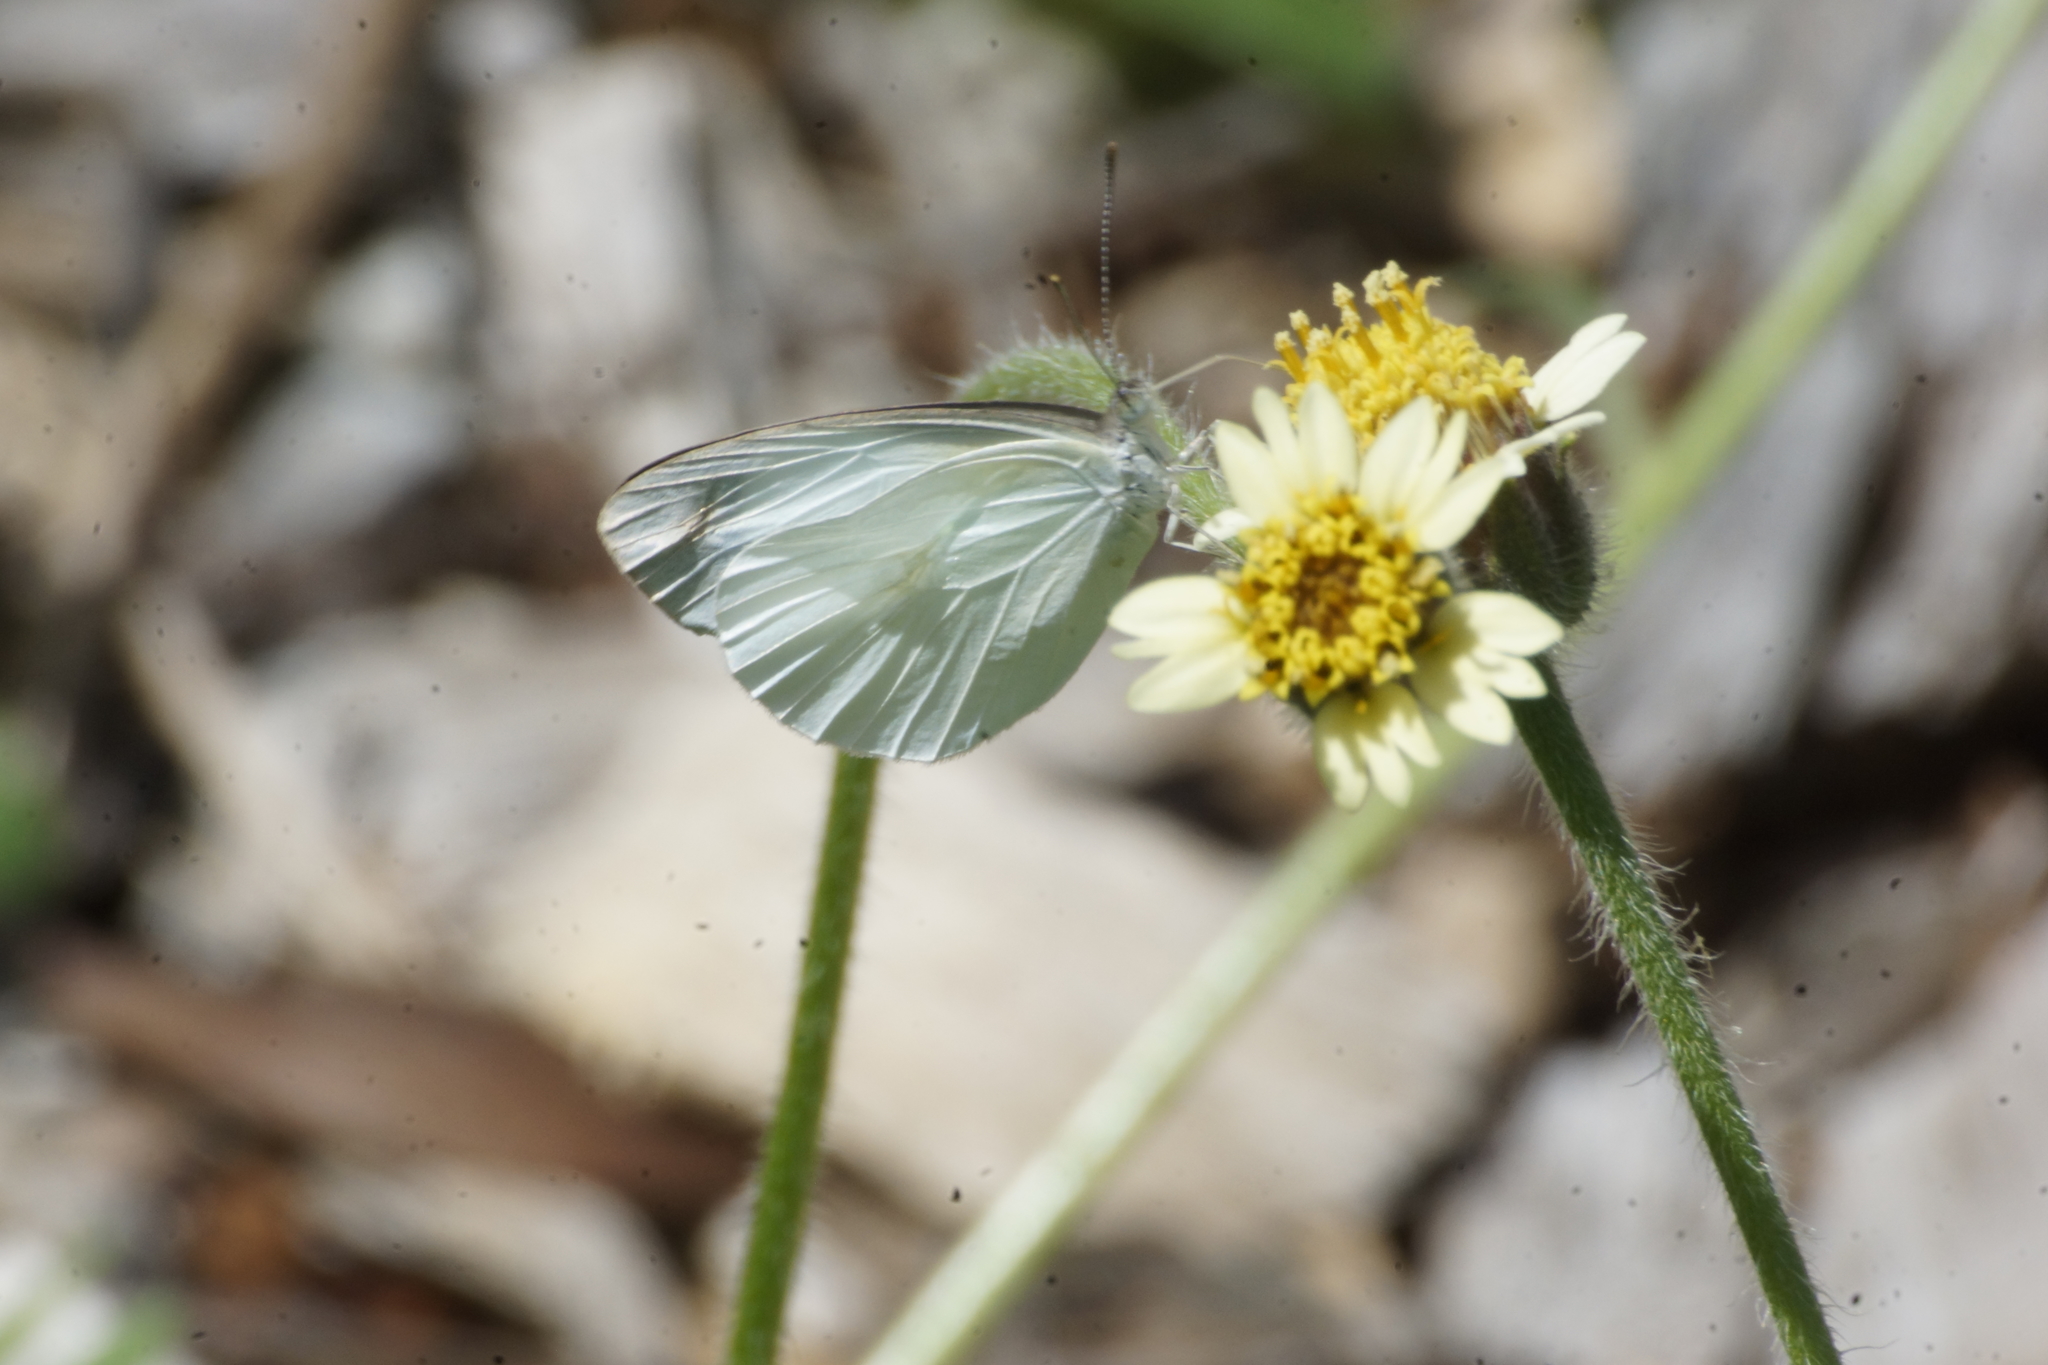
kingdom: Animalia
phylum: Arthropoda
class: Insecta
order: Lepidoptera
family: Pieridae
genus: Elodina
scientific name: Elodina walkeri
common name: Small pearl-white
